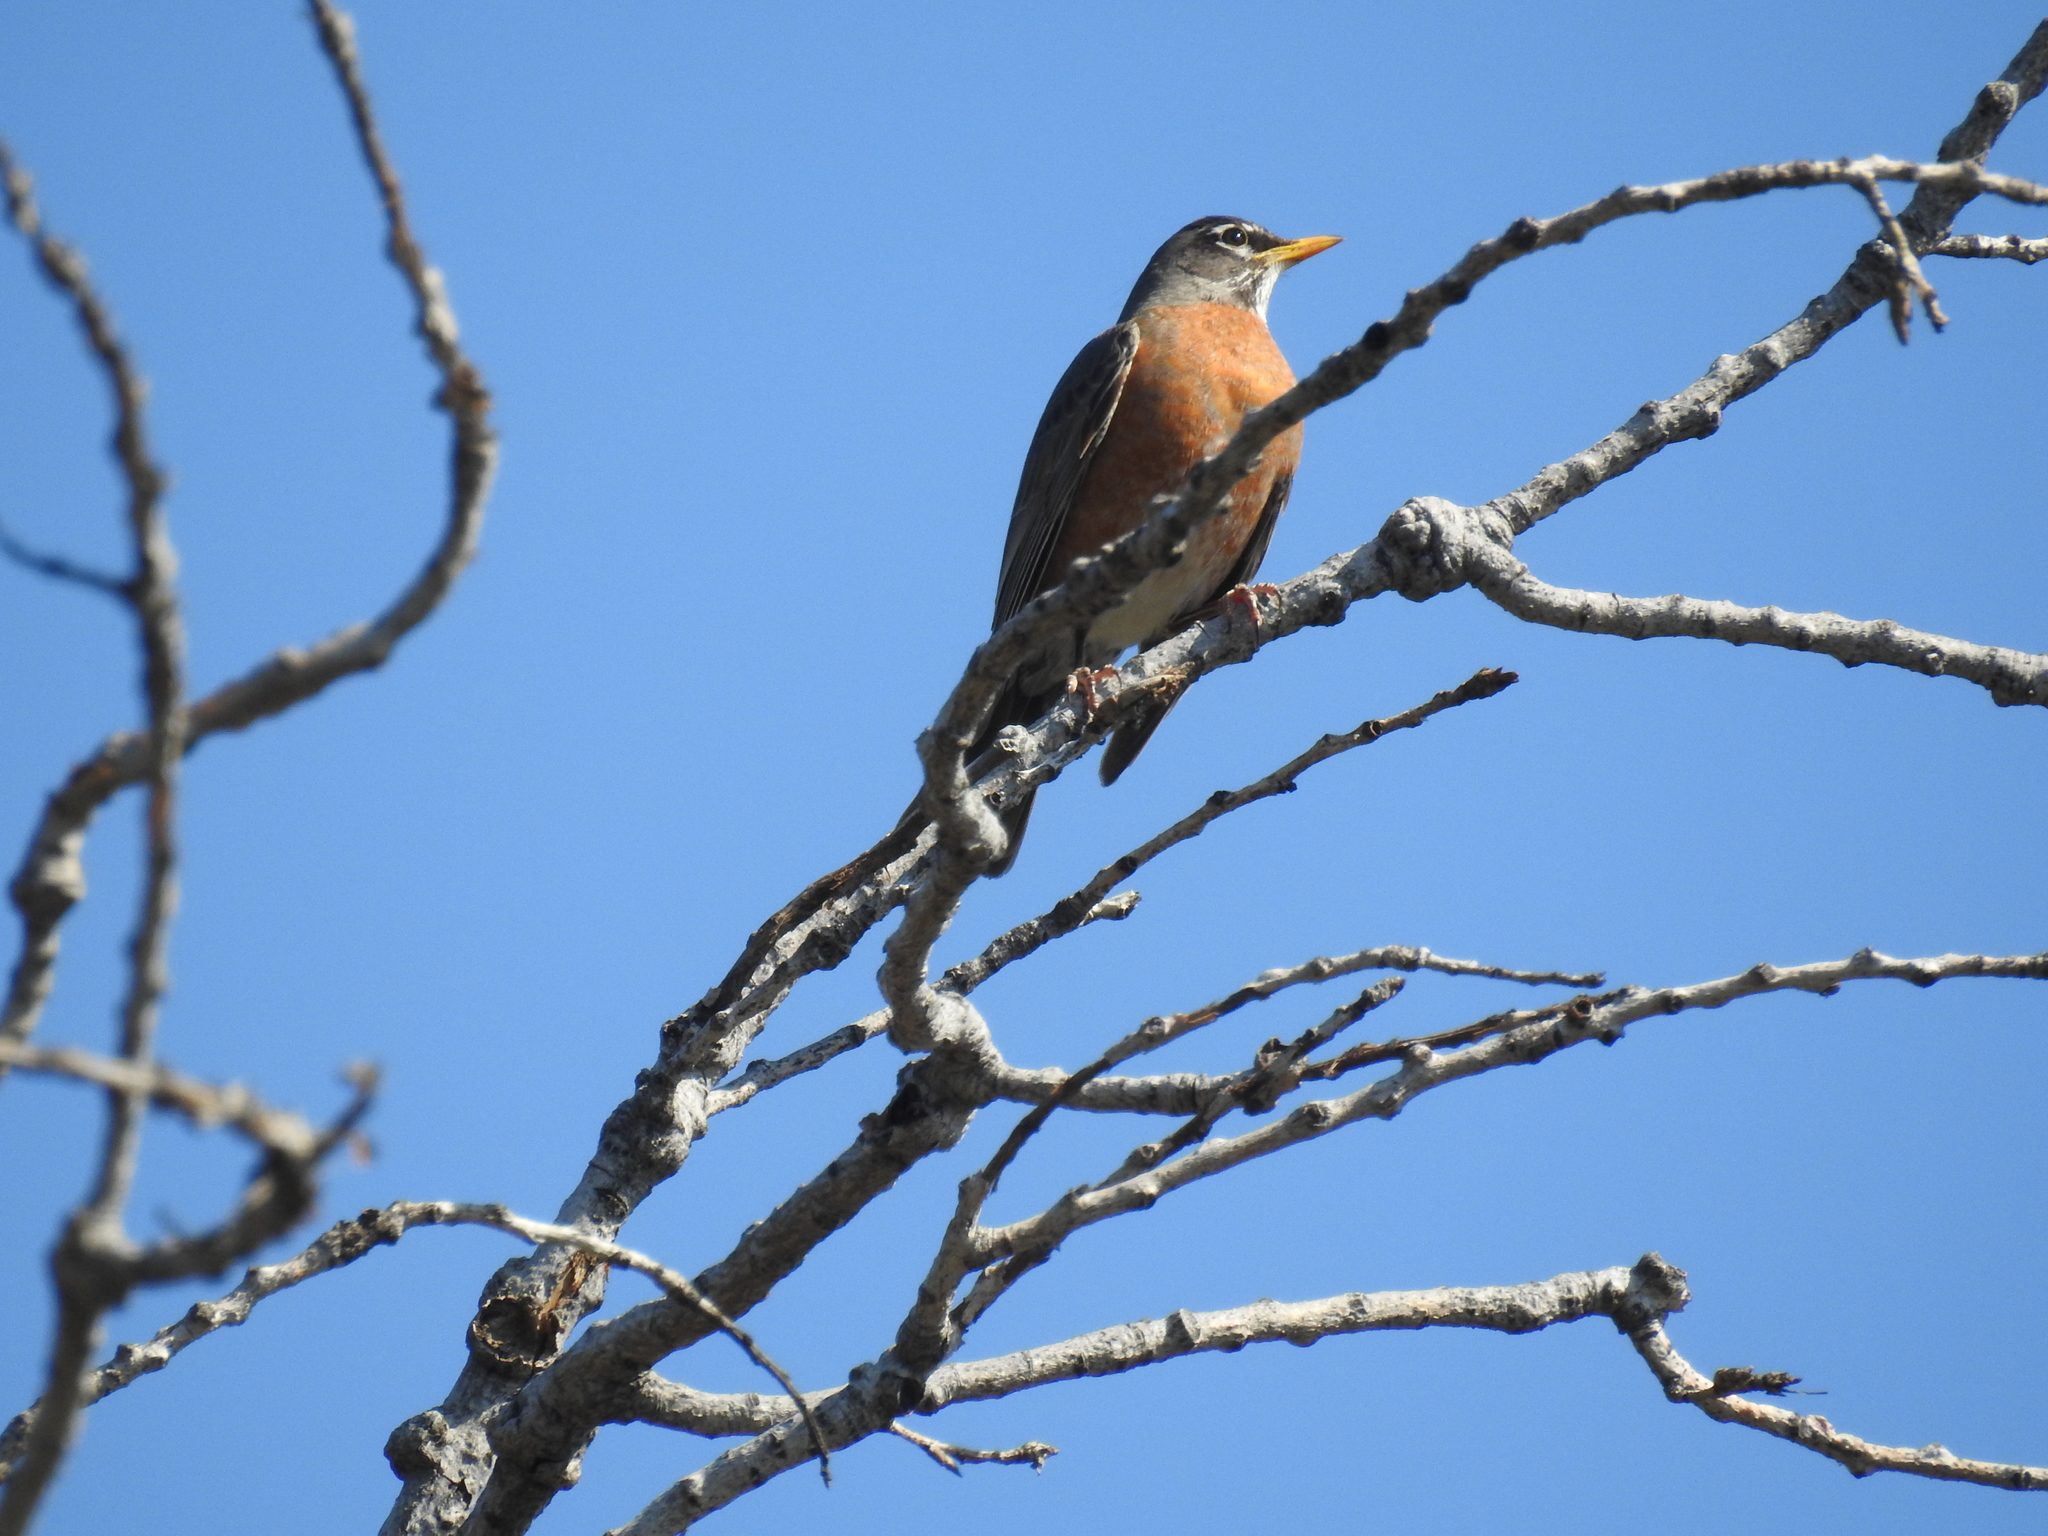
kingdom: Animalia
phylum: Chordata
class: Aves
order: Passeriformes
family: Turdidae
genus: Turdus
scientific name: Turdus migratorius
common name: American robin
